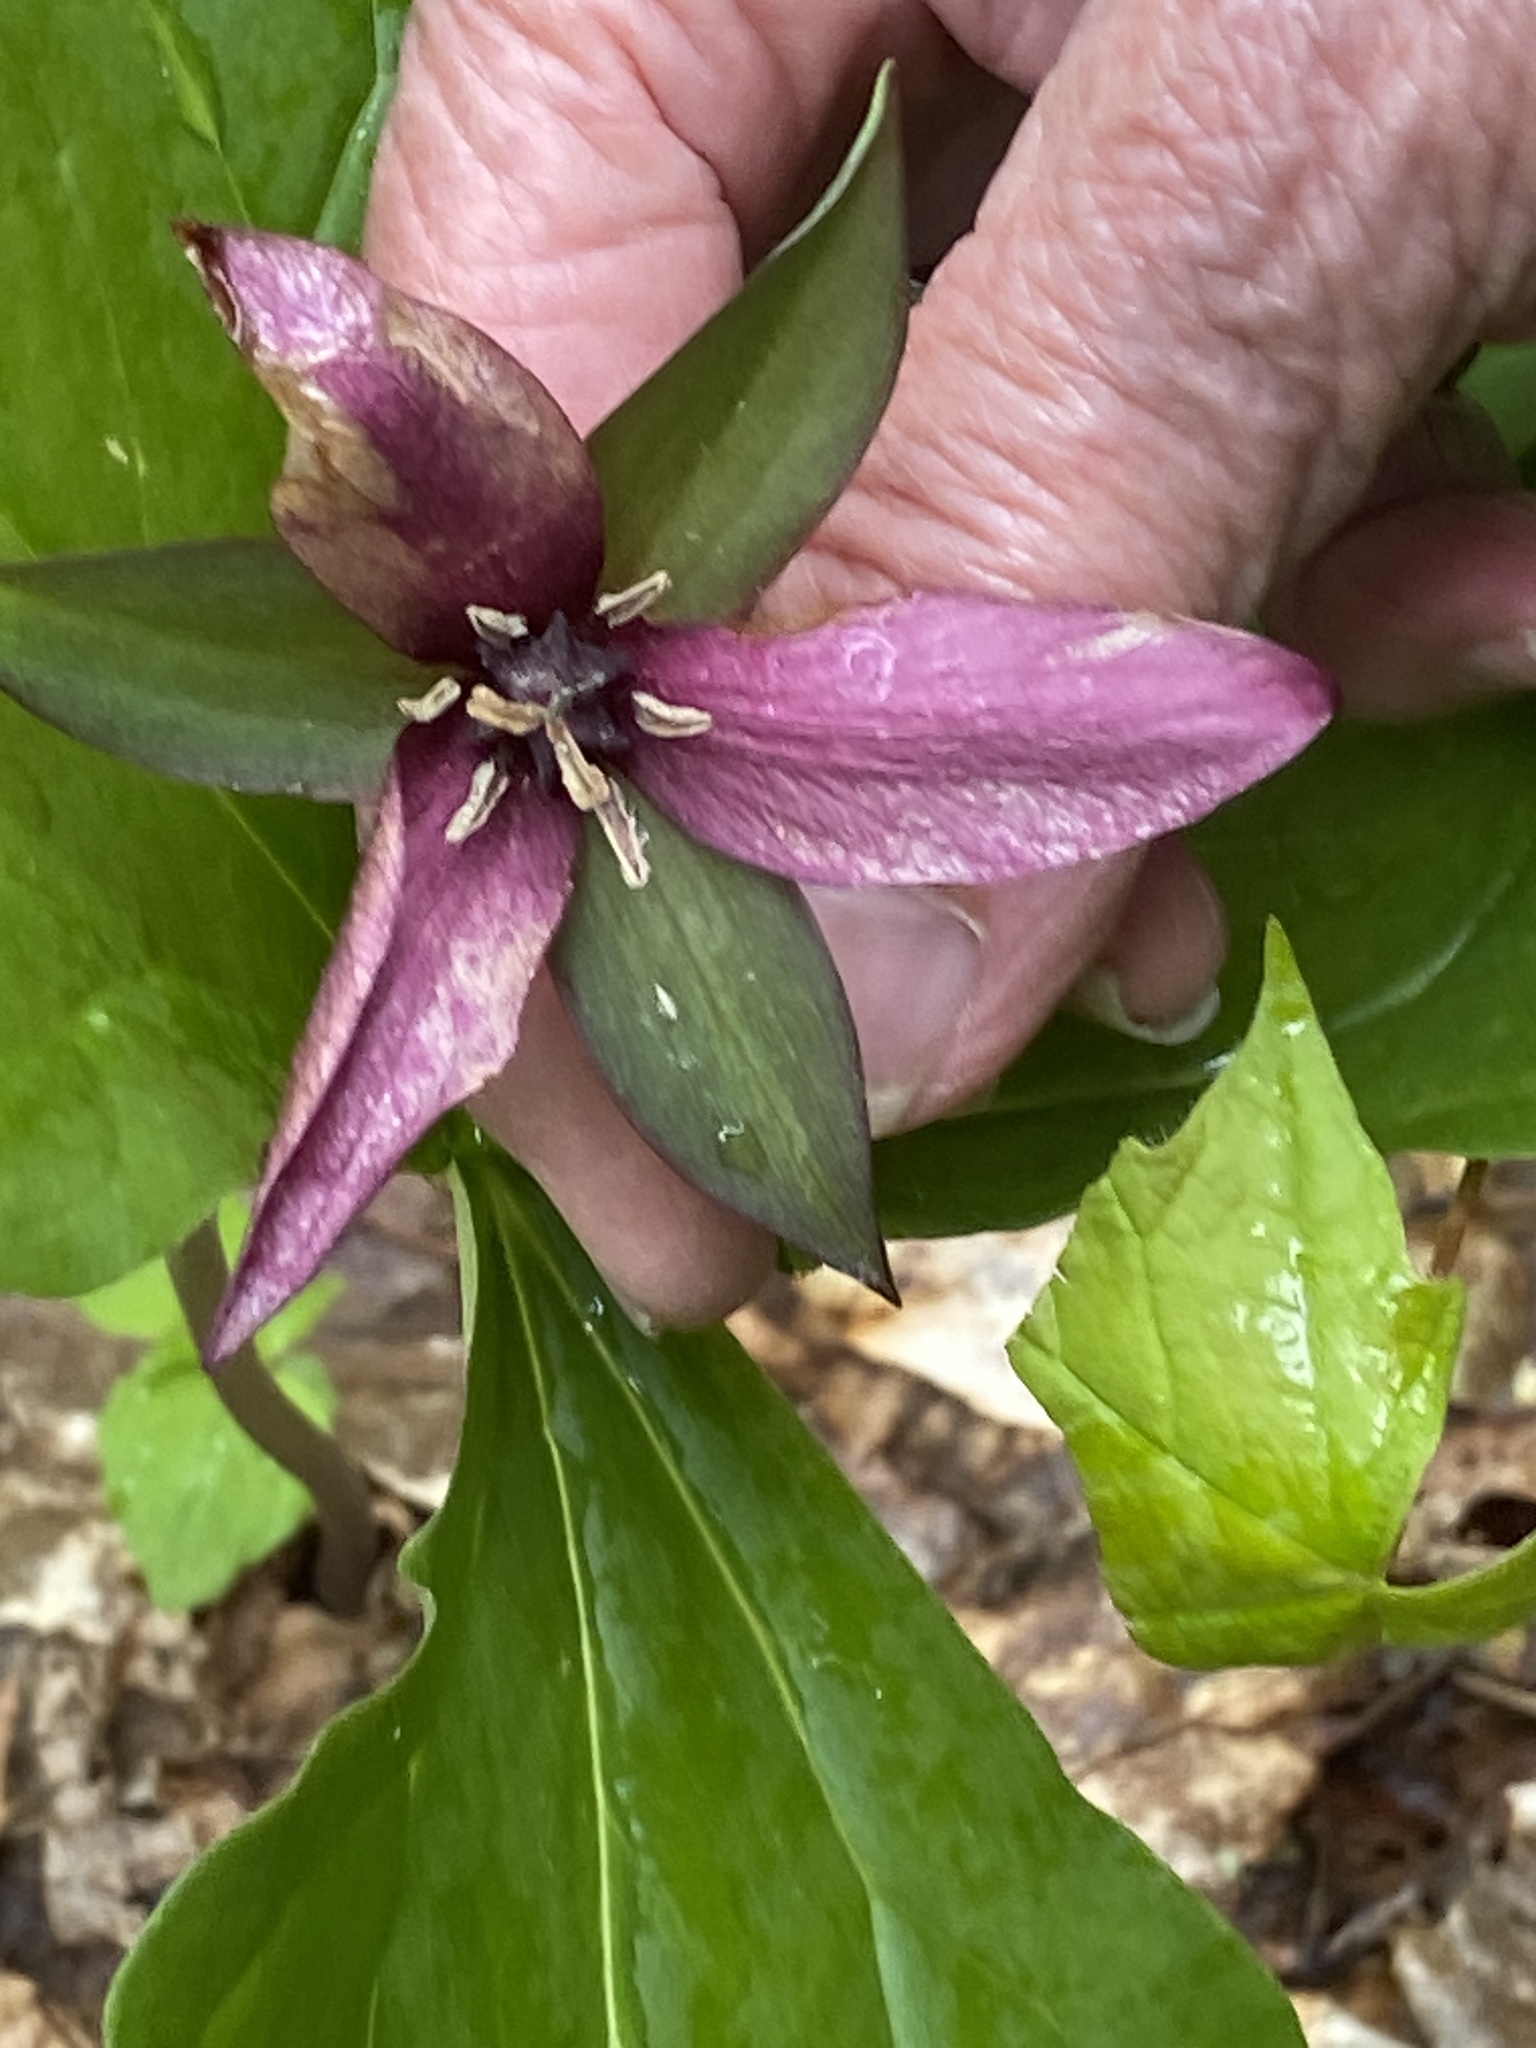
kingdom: Plantae
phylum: Tracheophyta
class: Liliopsida
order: Liliales
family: Melanthiaceae
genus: Trillium
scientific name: Trillium erectum
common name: Purple trillium
